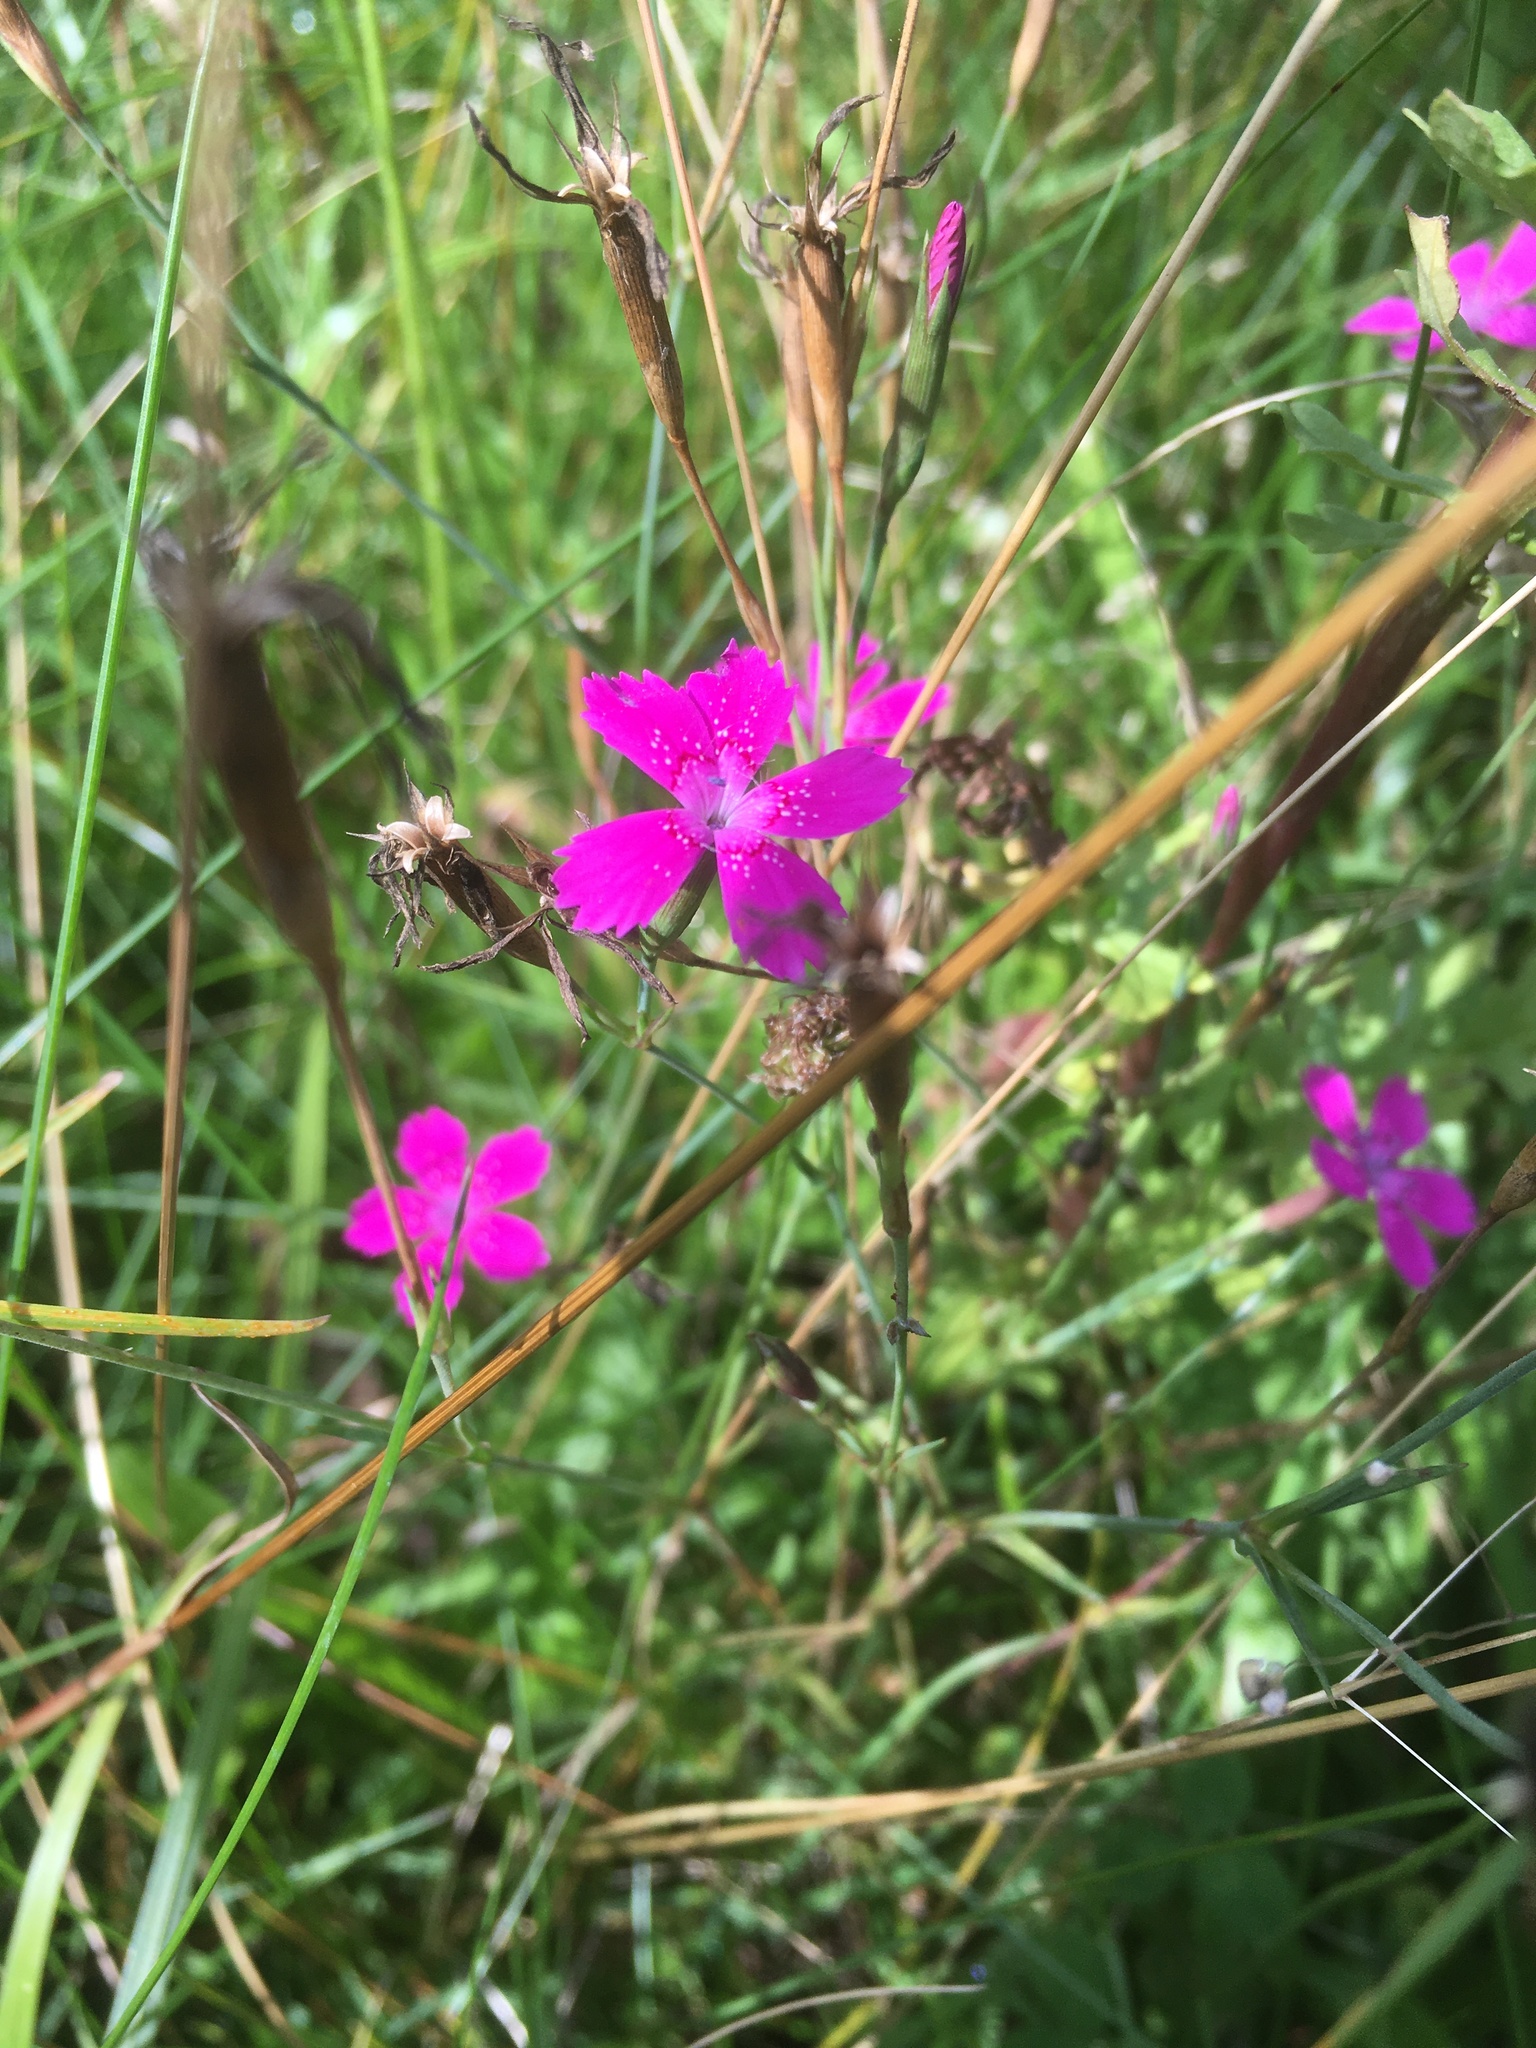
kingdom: Plantae
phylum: Tracheophyta
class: Magnoliopsida
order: Caryophyllales
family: Caryophyllaceae
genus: Dianthus
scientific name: Dianthus deltoides
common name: Maiden pink
